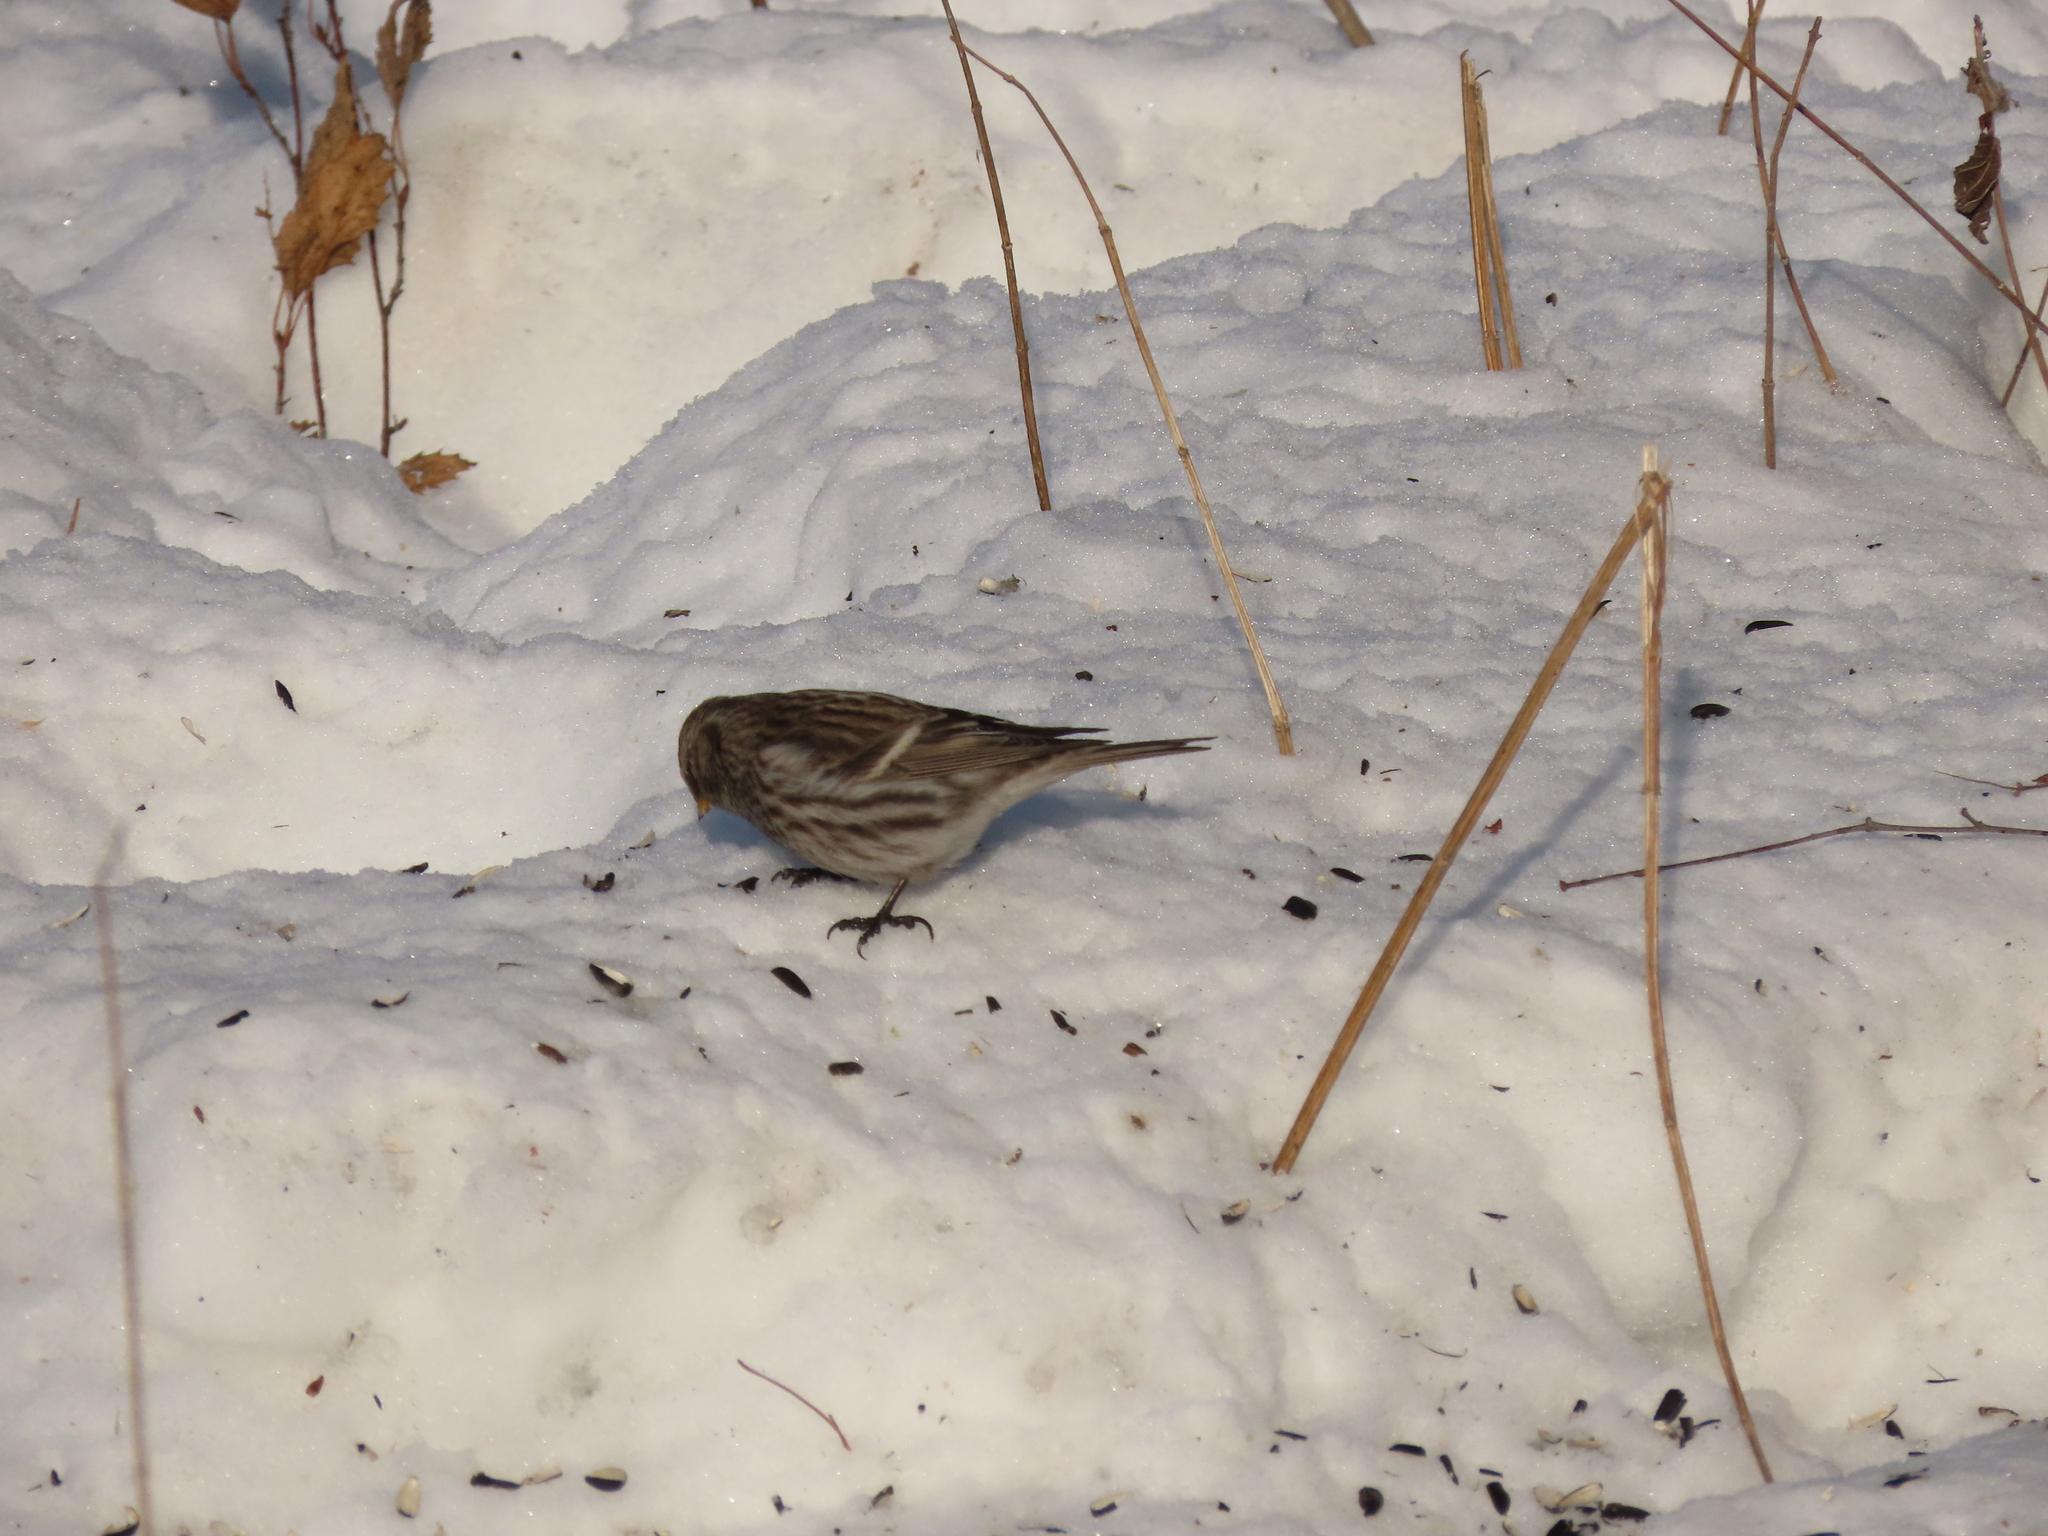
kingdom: Animalia
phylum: Chordata
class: Aves
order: Passeriformes
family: Fringillidae
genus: Acanthis
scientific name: Acanthis flammea
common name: Common redpoll
